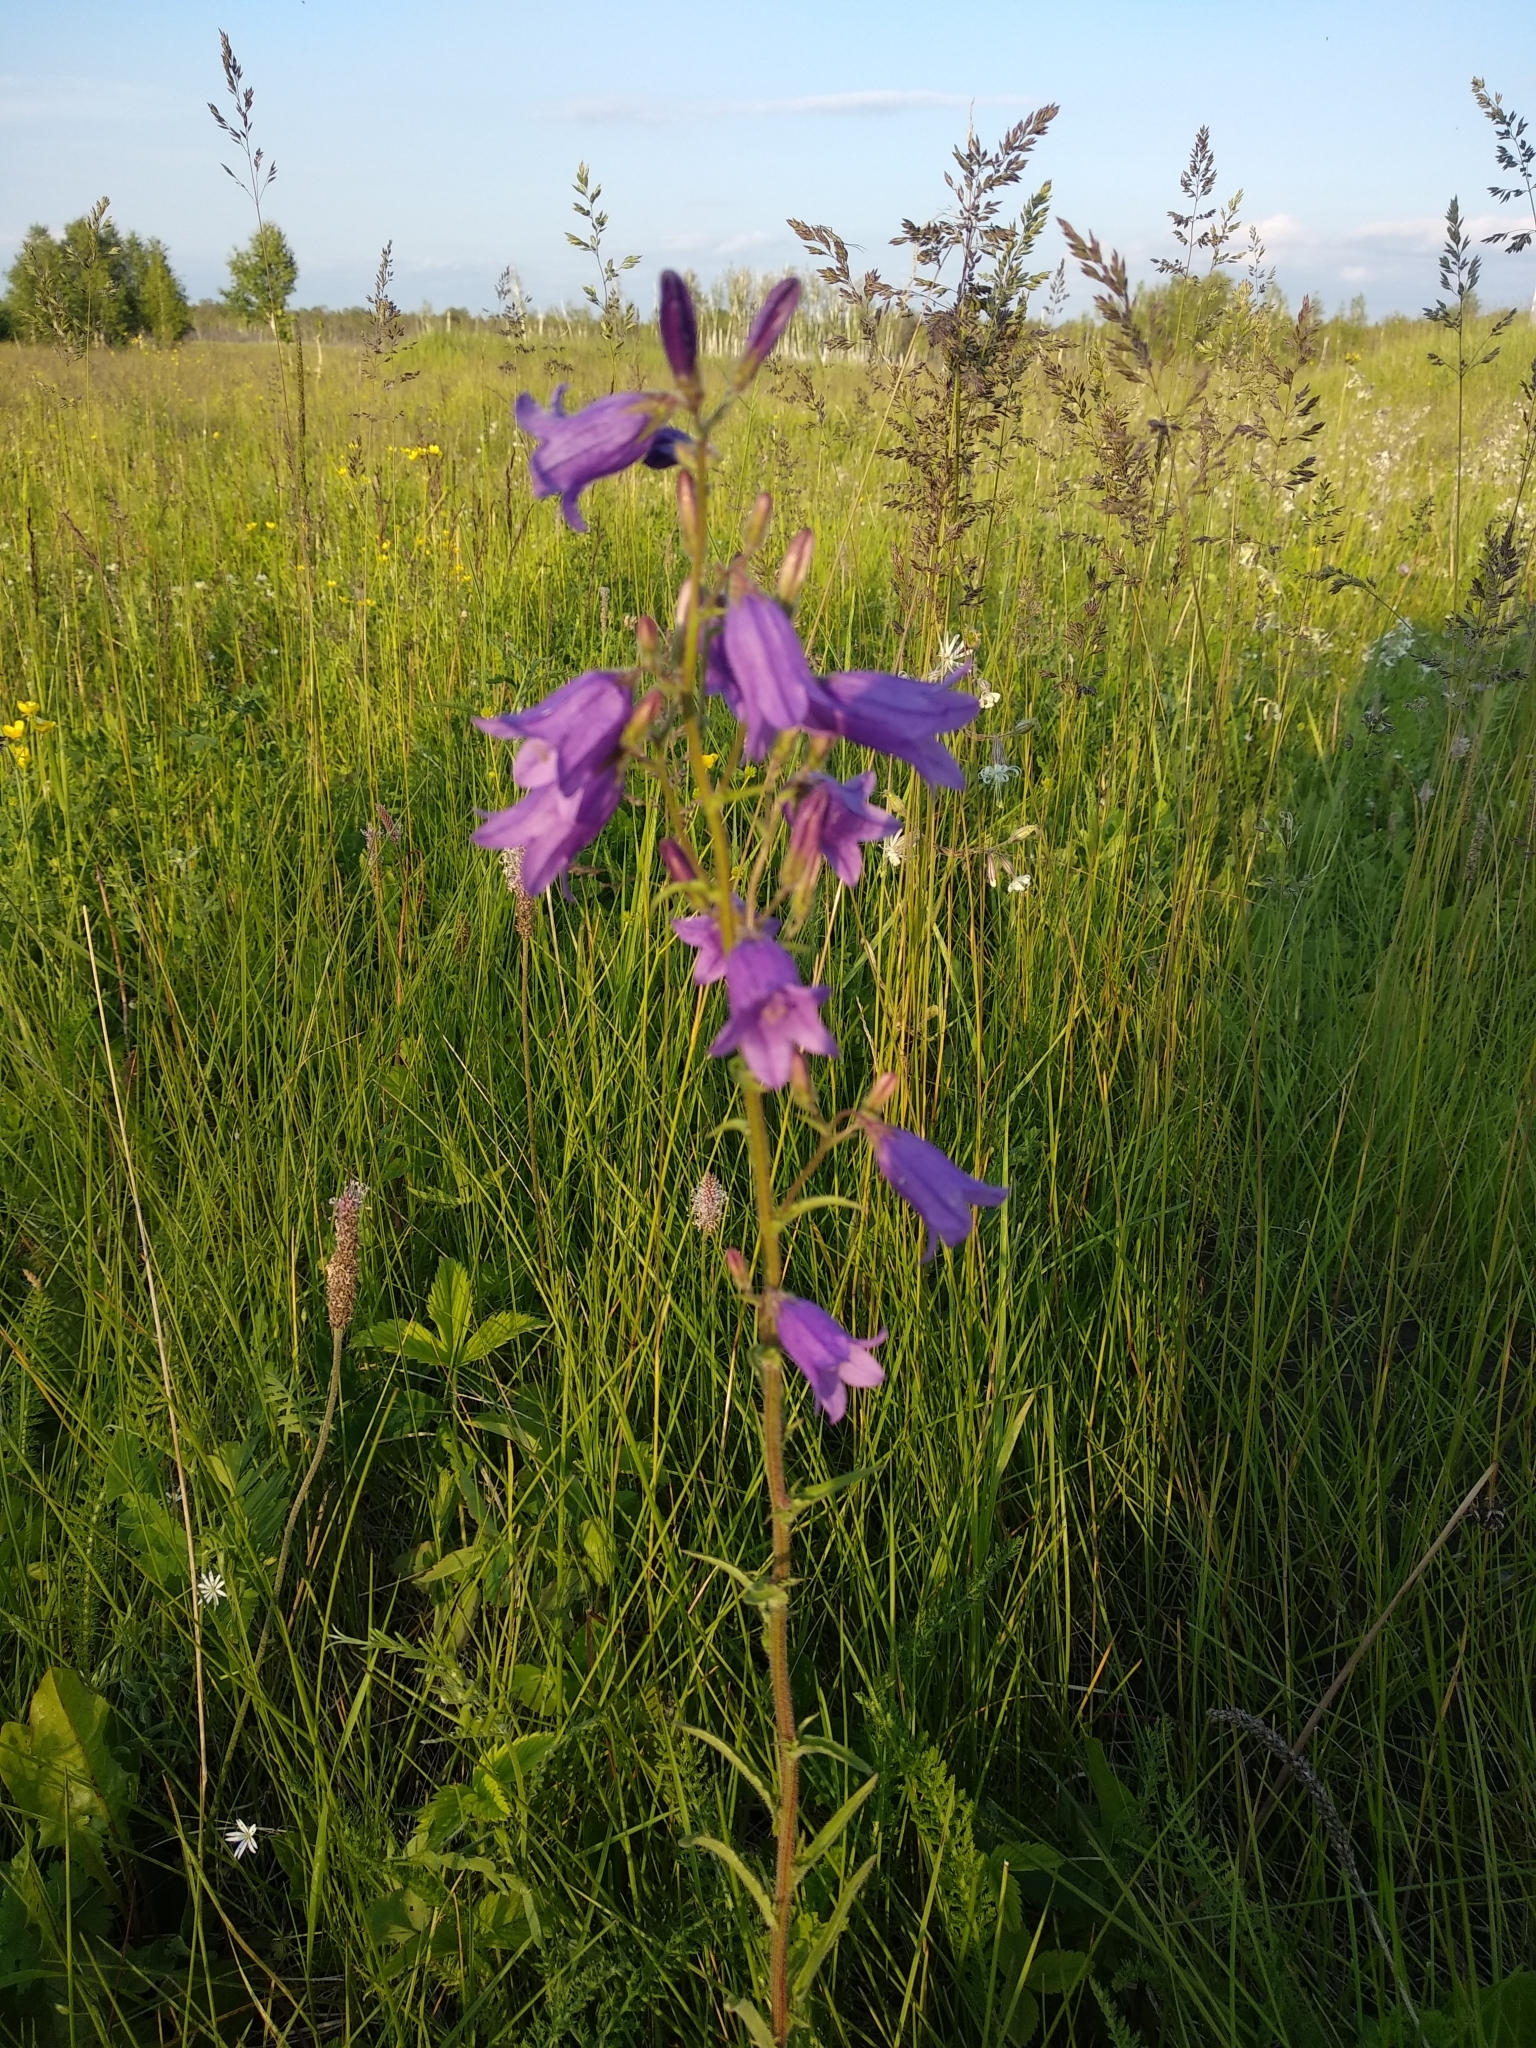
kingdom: Plantae
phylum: Tracheophyta
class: Magnoliopsida
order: Asterales
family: Campanulaceae
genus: Campanula
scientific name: Campanula sibirica
